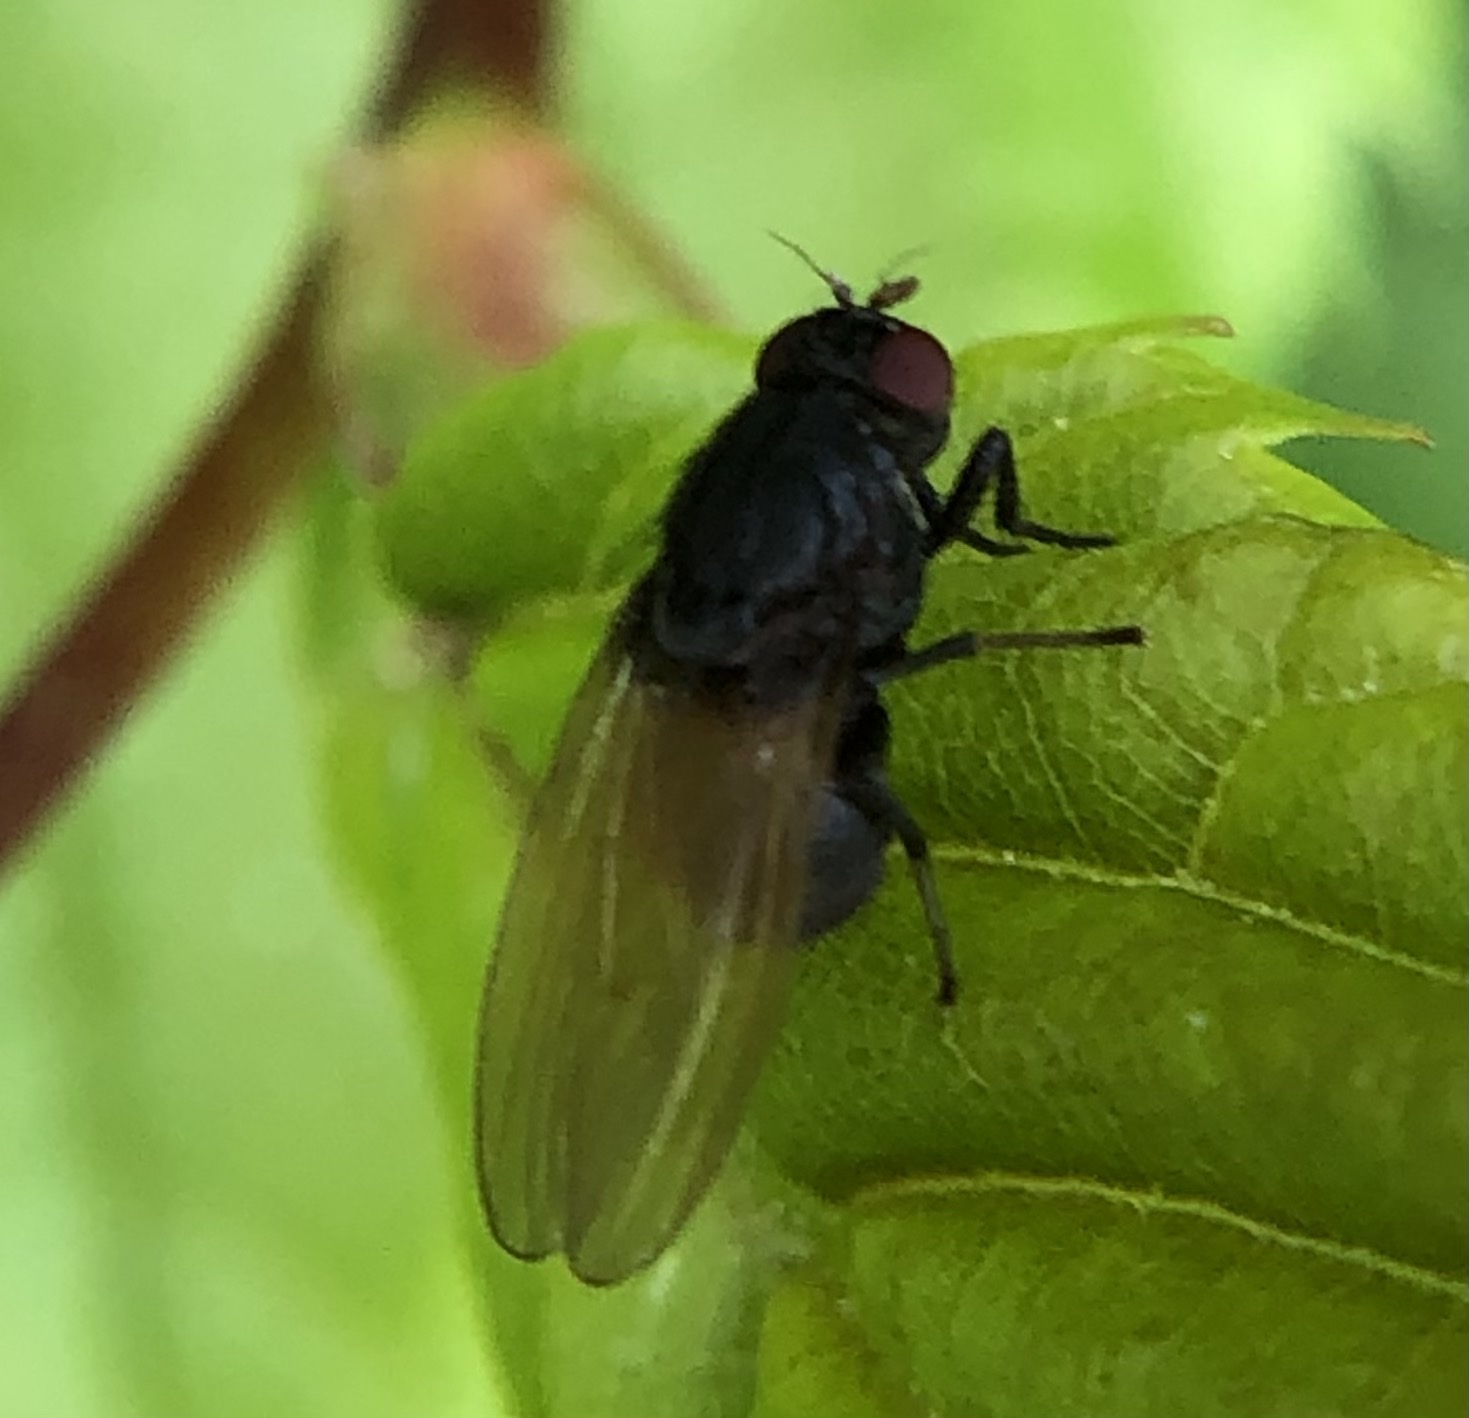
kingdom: Animalia
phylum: Arthropoda
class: Insecta
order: Diptera
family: Lauxaniidae
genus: Minettia
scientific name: Minettia longipennis
